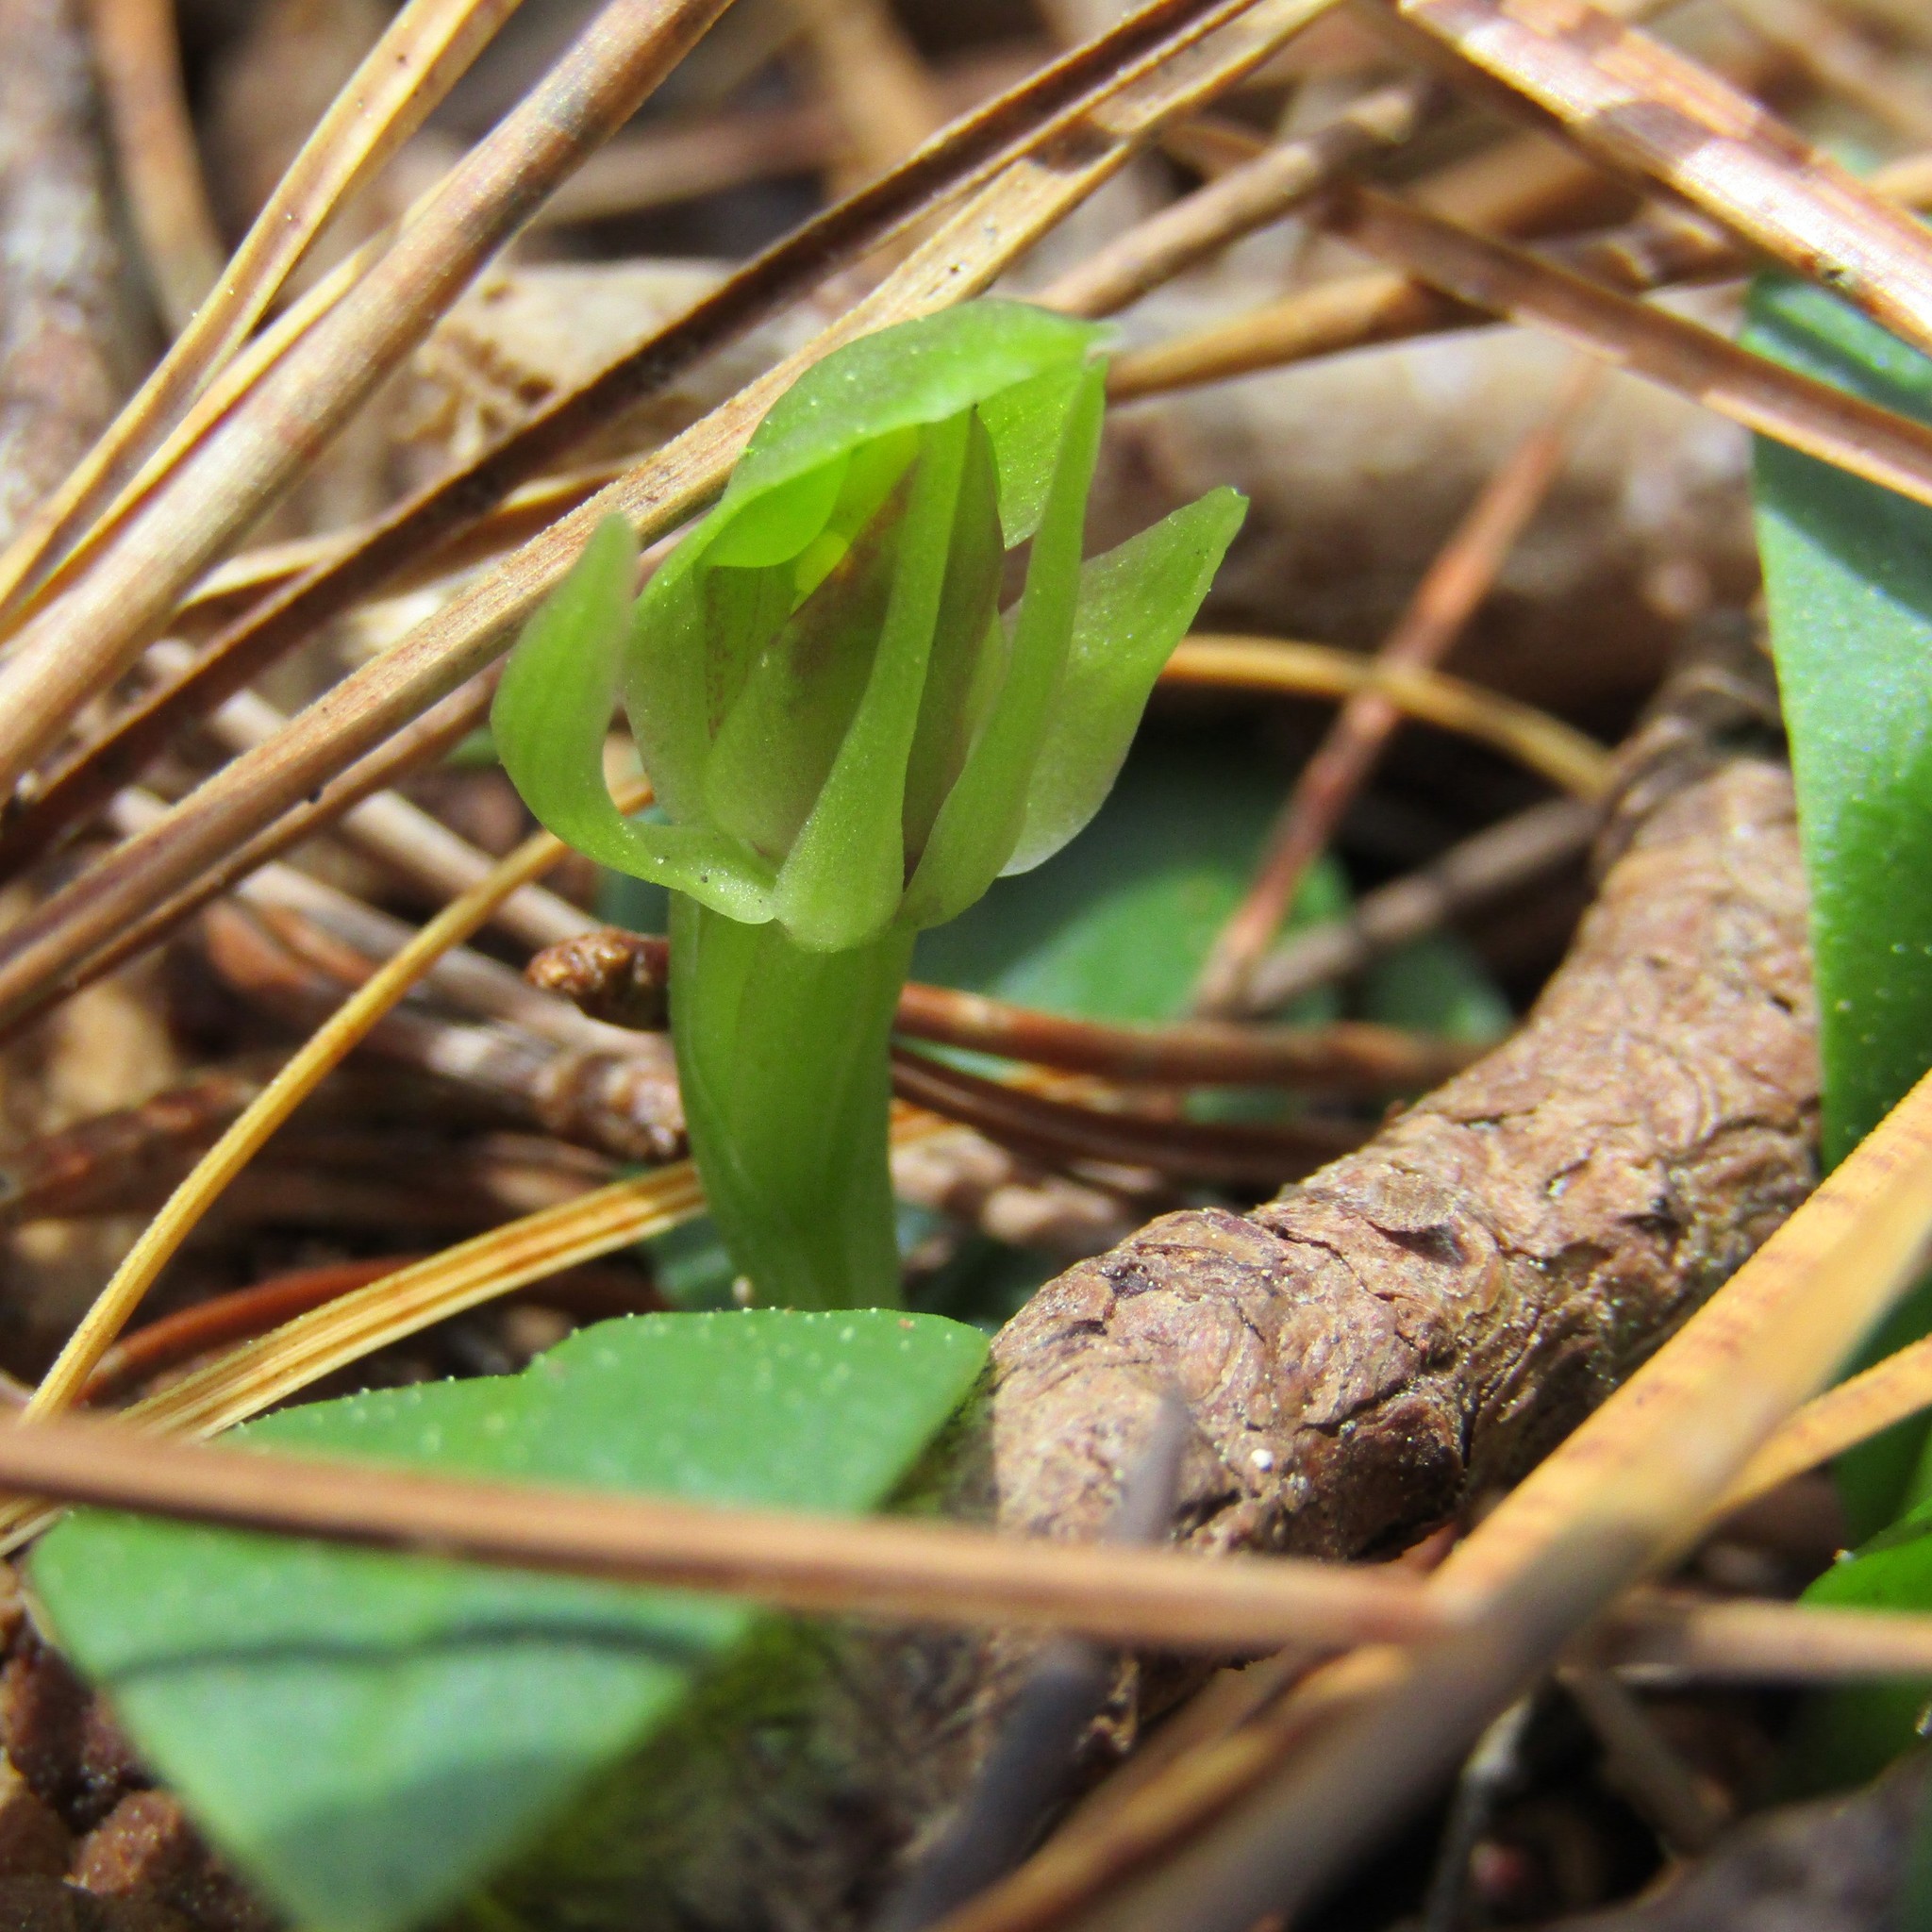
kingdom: Plantae
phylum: Tracheophyta
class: Liliopsida
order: Asparagales
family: Orchidaceae
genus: Chiloglottis
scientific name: Chiloglottis cornuta
